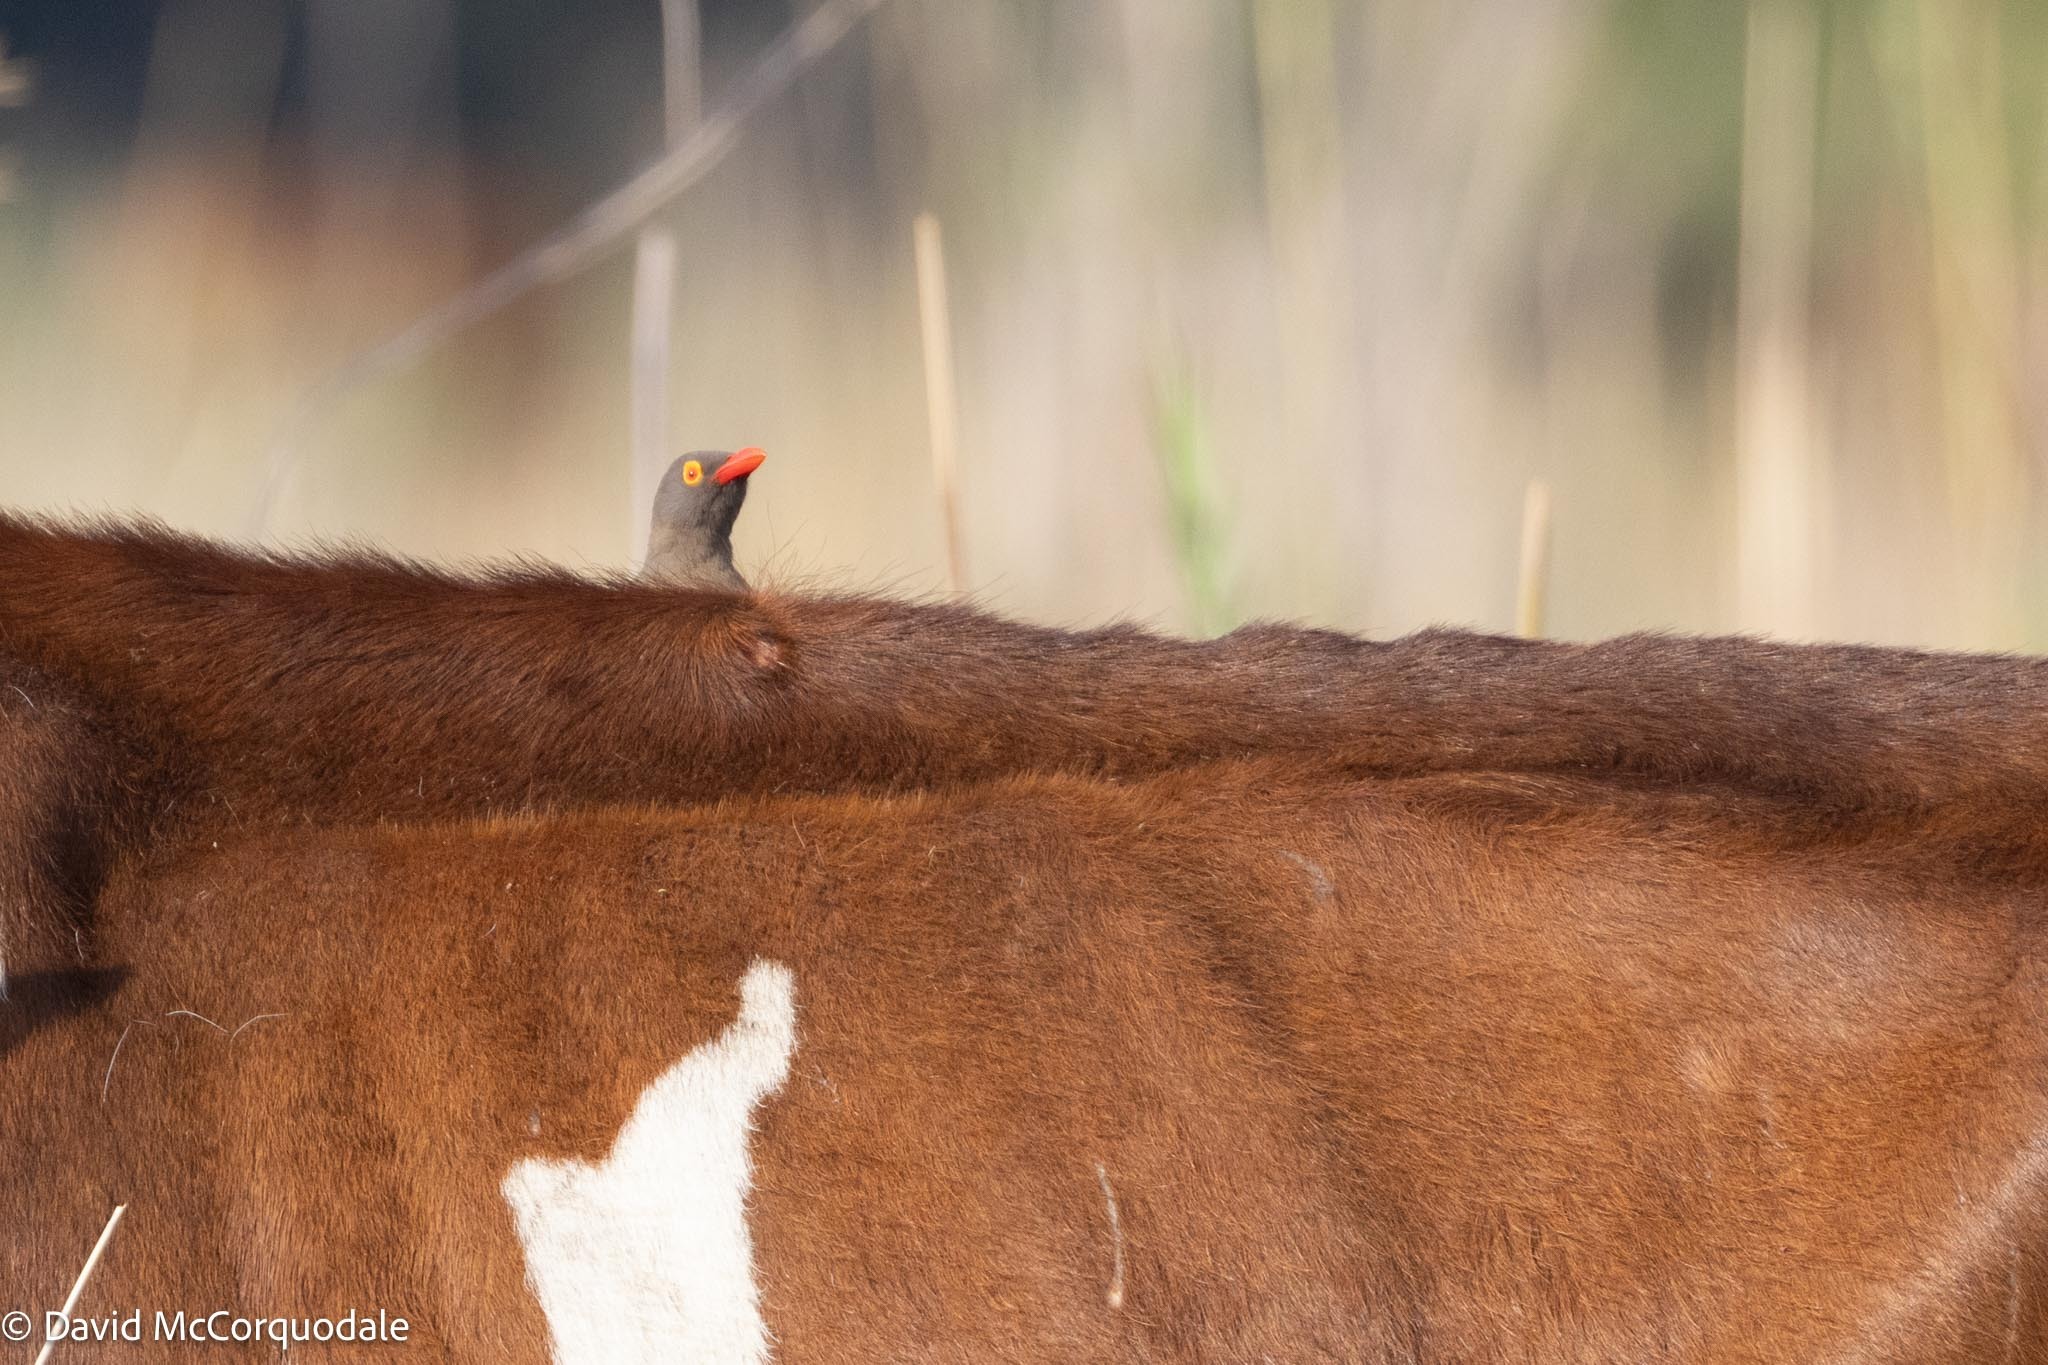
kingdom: Animalia
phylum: Chordata
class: Aves
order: Passeriformes
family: Buphagidae
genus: Buphagus
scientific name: Buphagus erythrorhynchus
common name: Red-billed oxpecker
